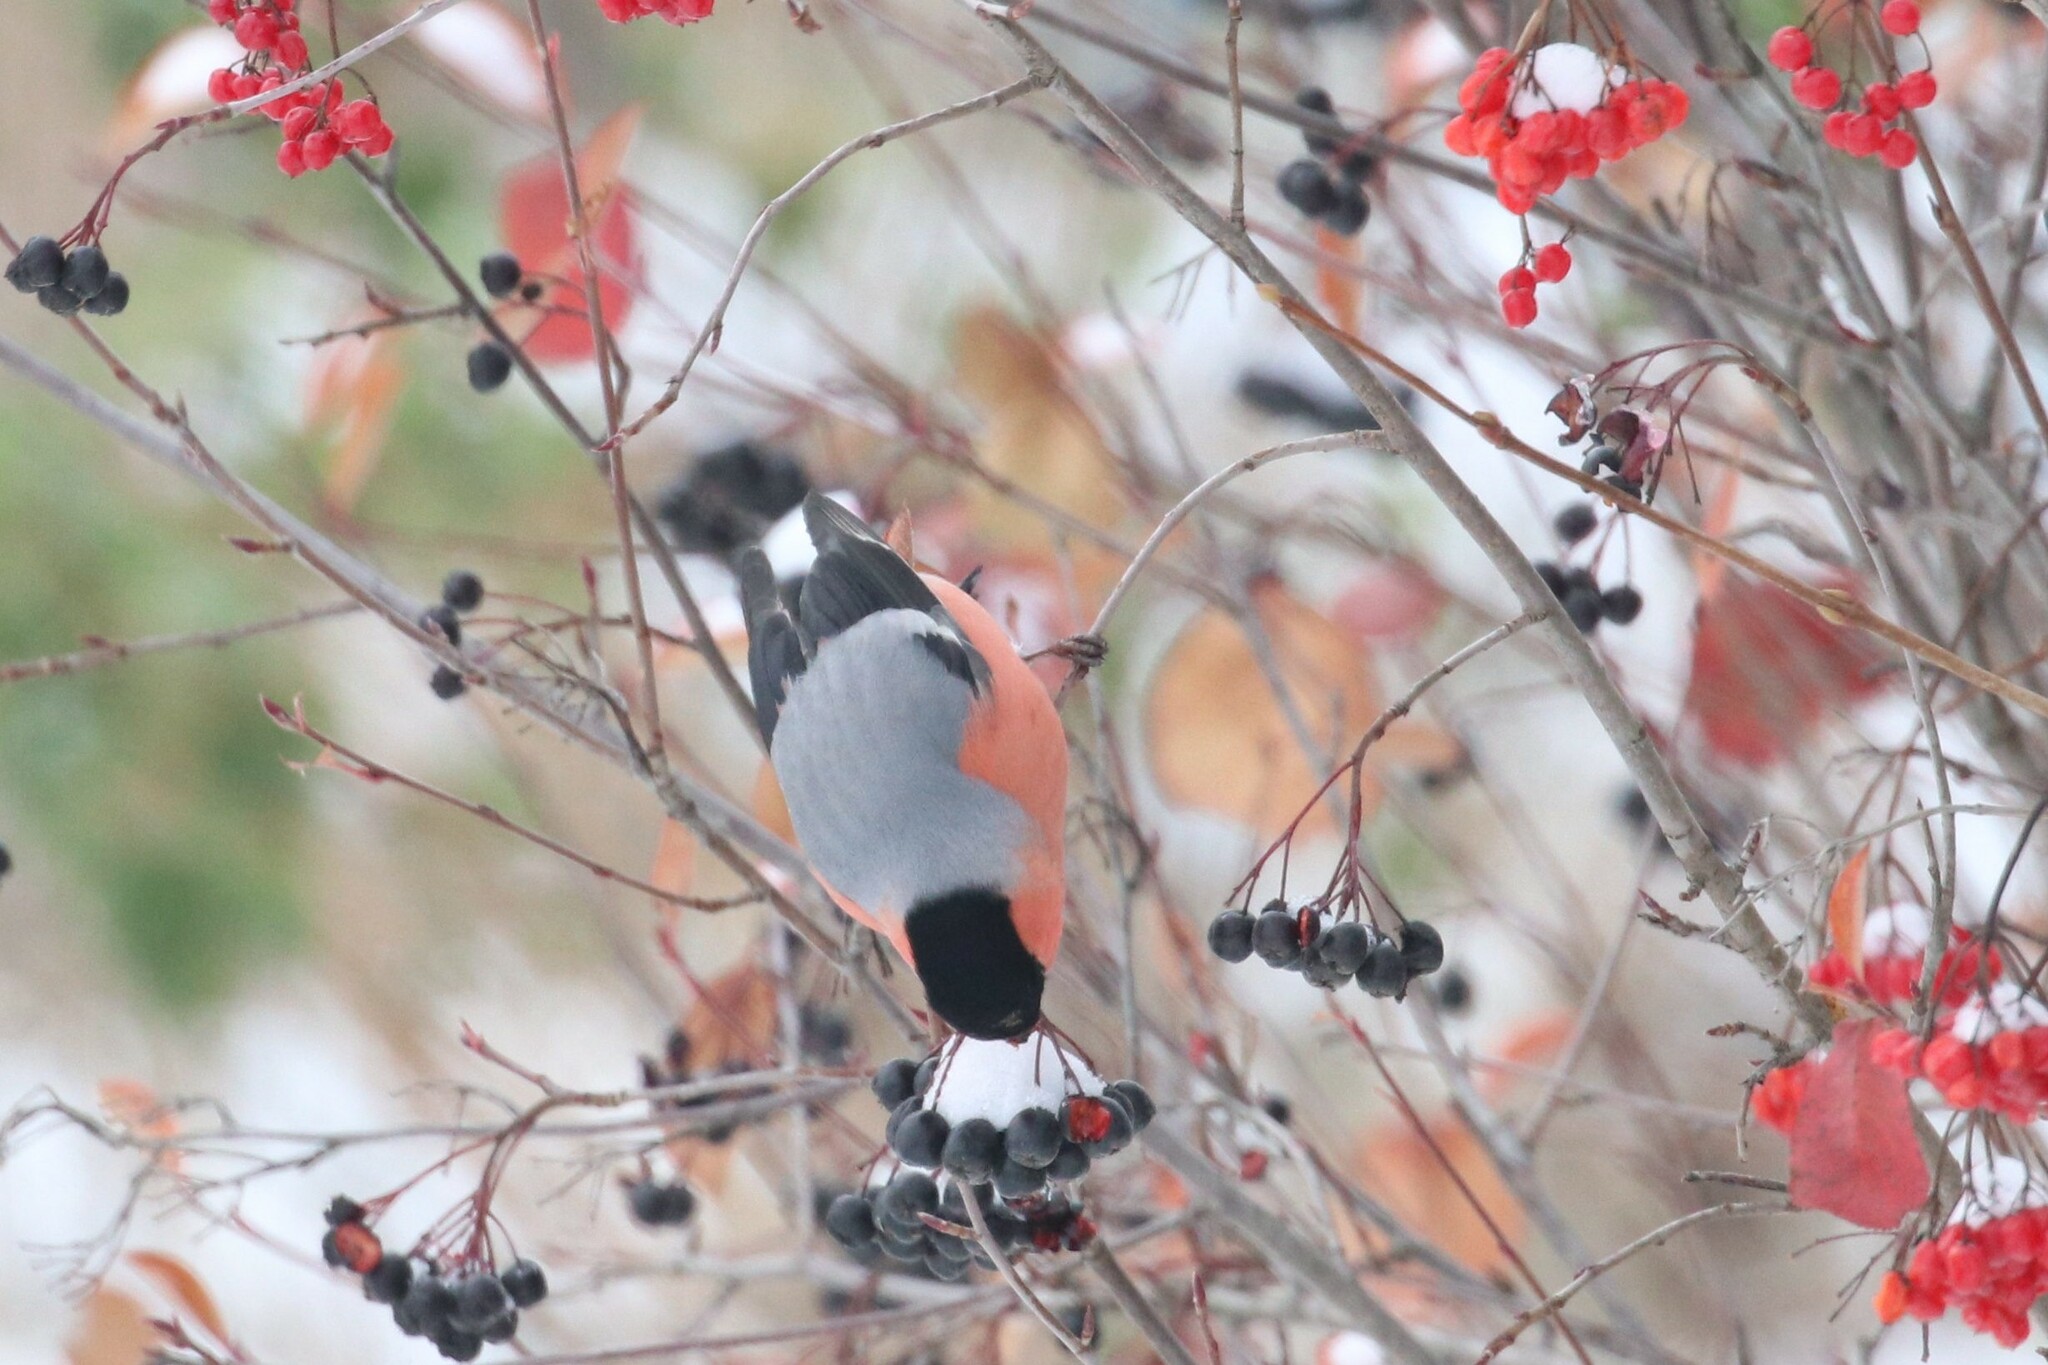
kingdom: Animalia
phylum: Chordata
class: Aves
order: Passeriformes
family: Fringillidae
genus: Pyrrhula
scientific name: Pyrrhula pyrrhula
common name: Eurasian bullfinch
